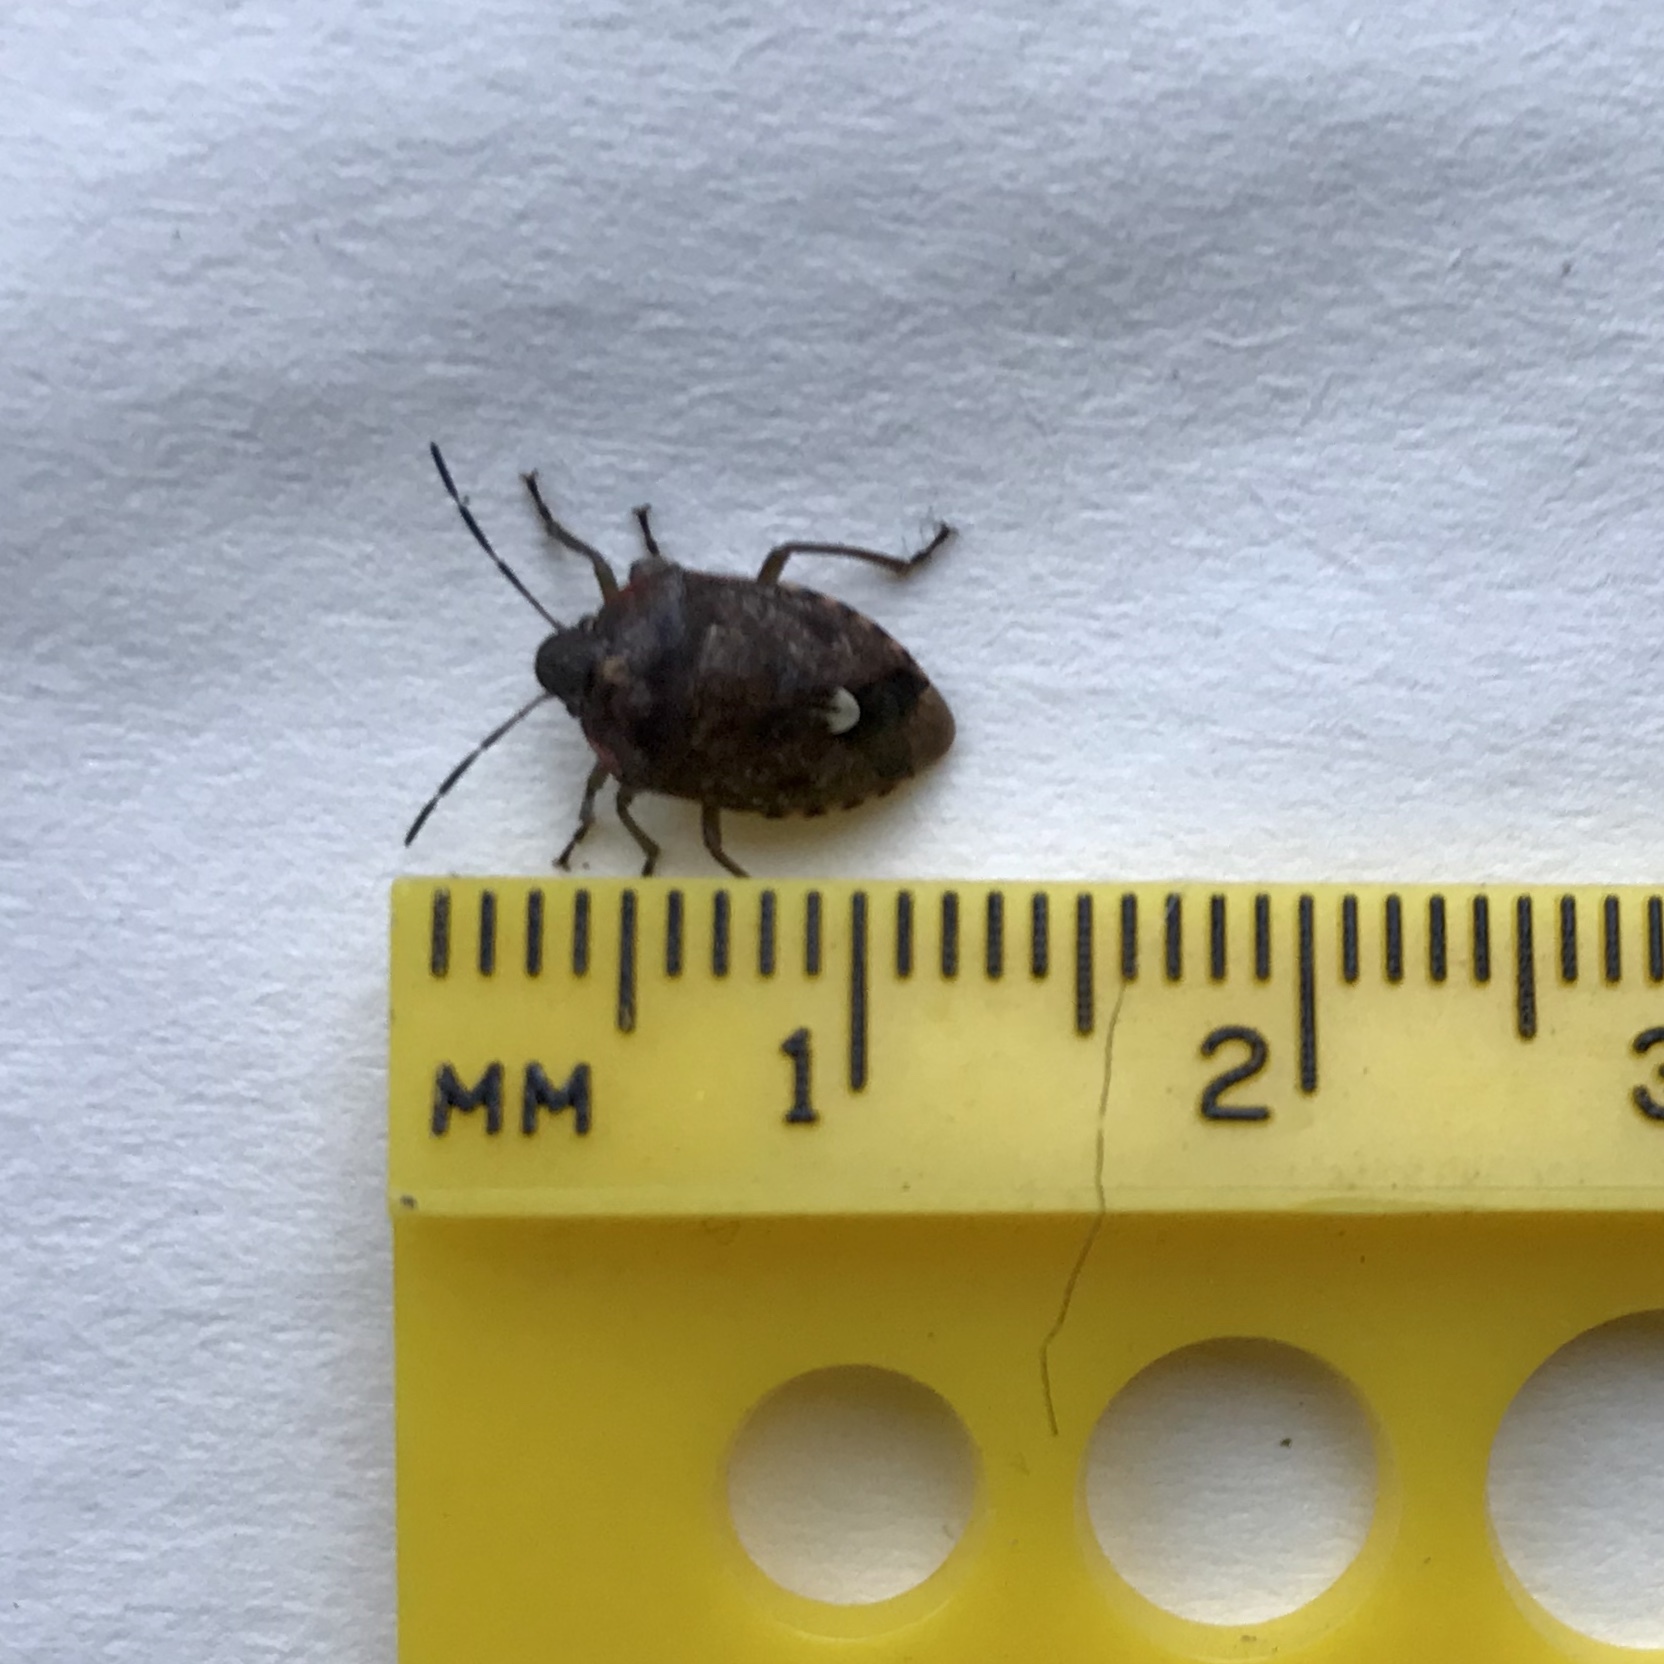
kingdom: Animalia
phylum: Arthropoda
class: Insecta
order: Hemiptera
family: Pentatomidae
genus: Banasa
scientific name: Banasa sordida
